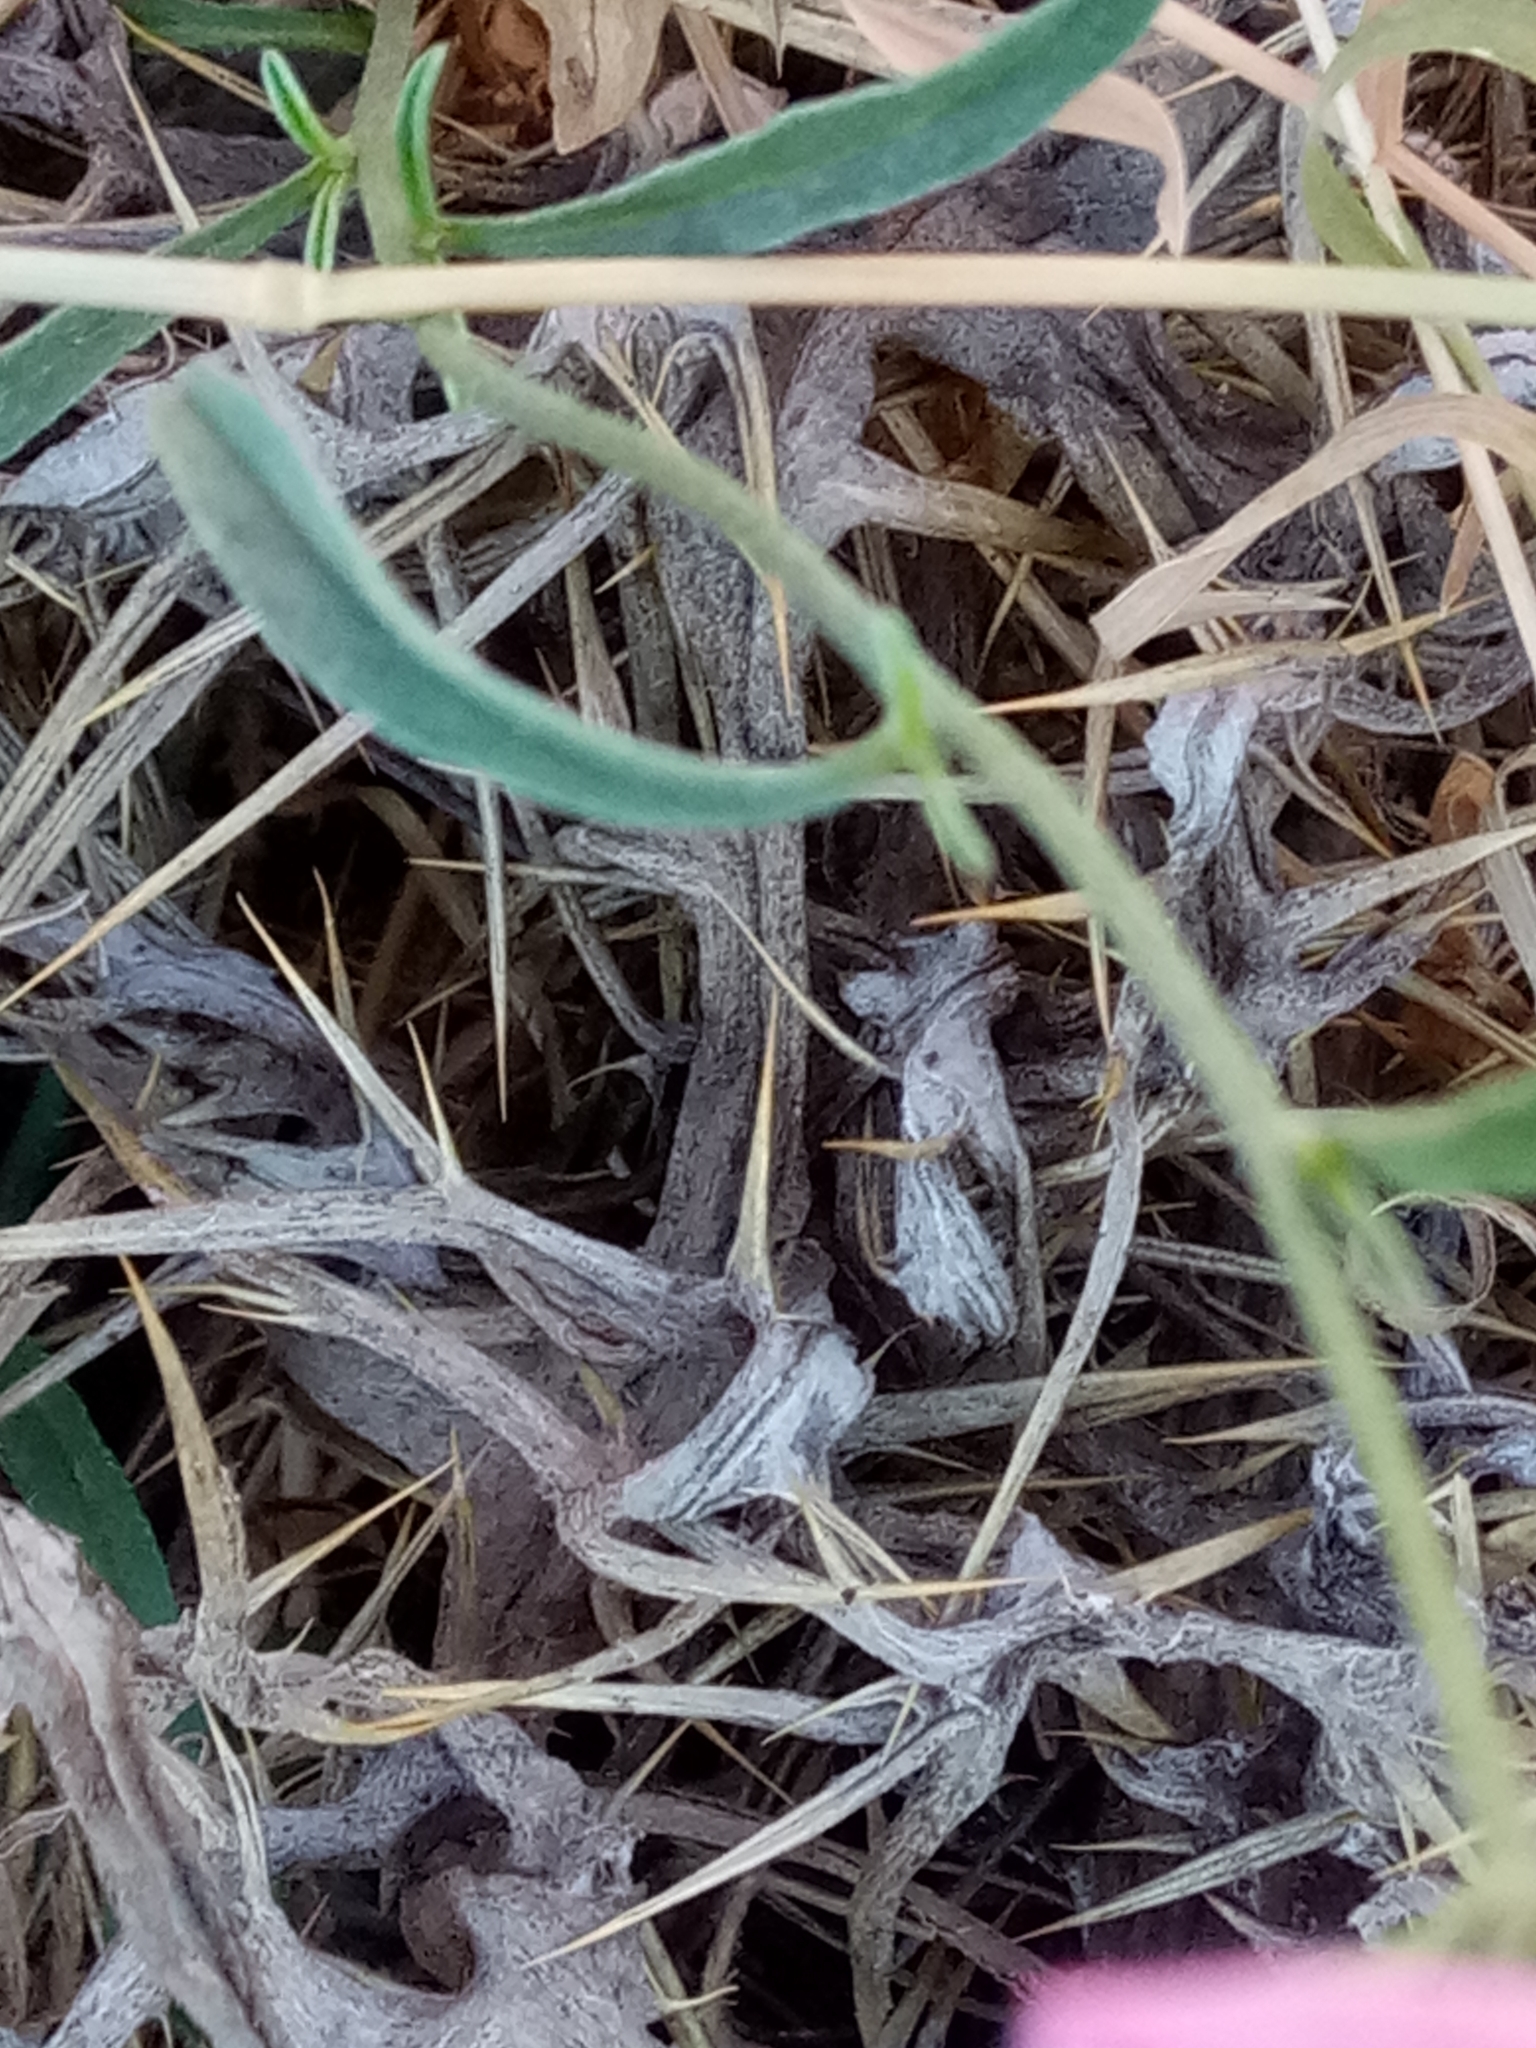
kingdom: Plantae
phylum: Tracheophyta
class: Magnoliopsida
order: Solanales
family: Convolvulaceae
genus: Convolvulus
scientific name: Convolvulus cantabrica
